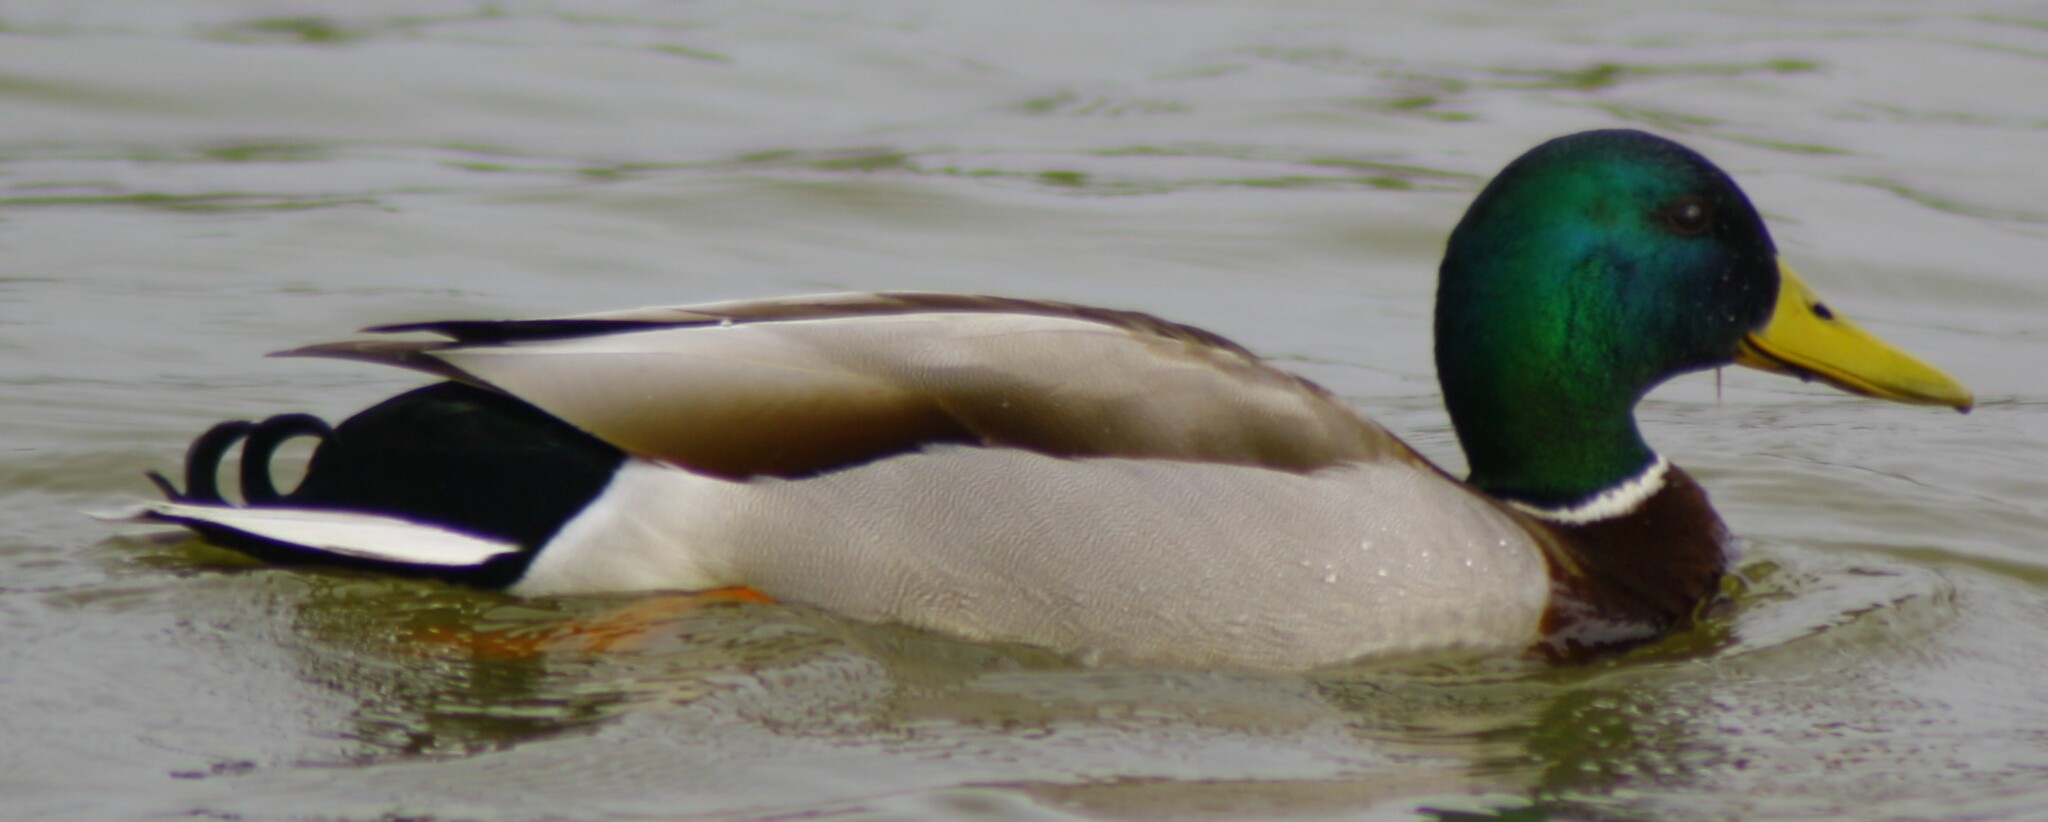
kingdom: Animalia
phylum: Chordata
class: Aves
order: Anseriformes
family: Anatidae
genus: Anas
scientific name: Anas platyrhynchos
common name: Mallard
